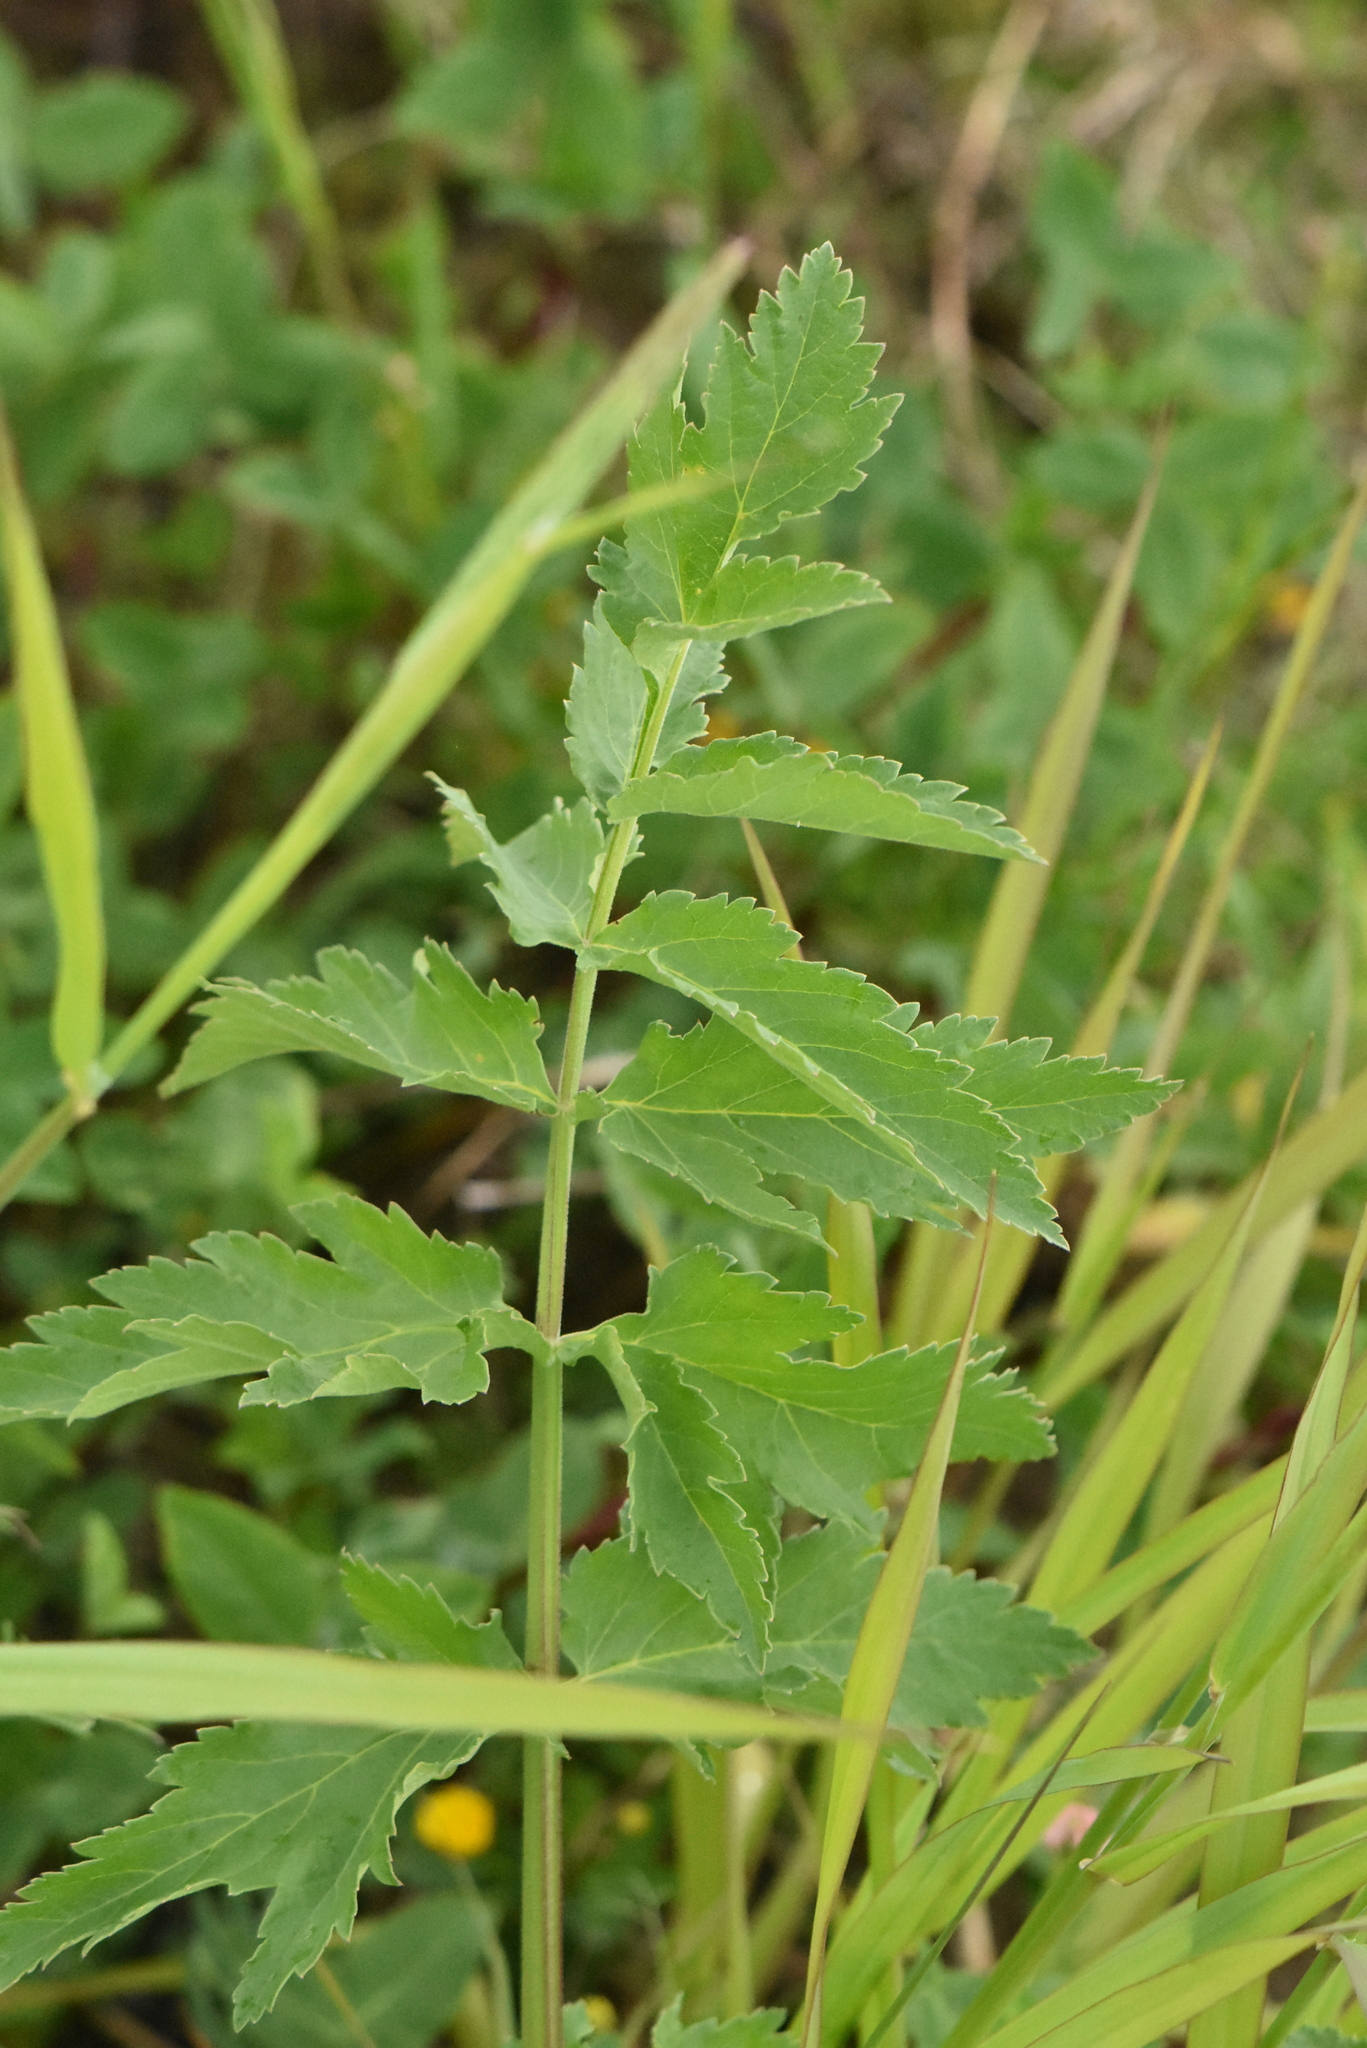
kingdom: Plantae
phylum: Tracheophyta
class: Magnoliopsida
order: Apiales
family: Apiaceae
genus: Pastinaca
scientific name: Pastinaca sativa
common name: Wild parsnip
